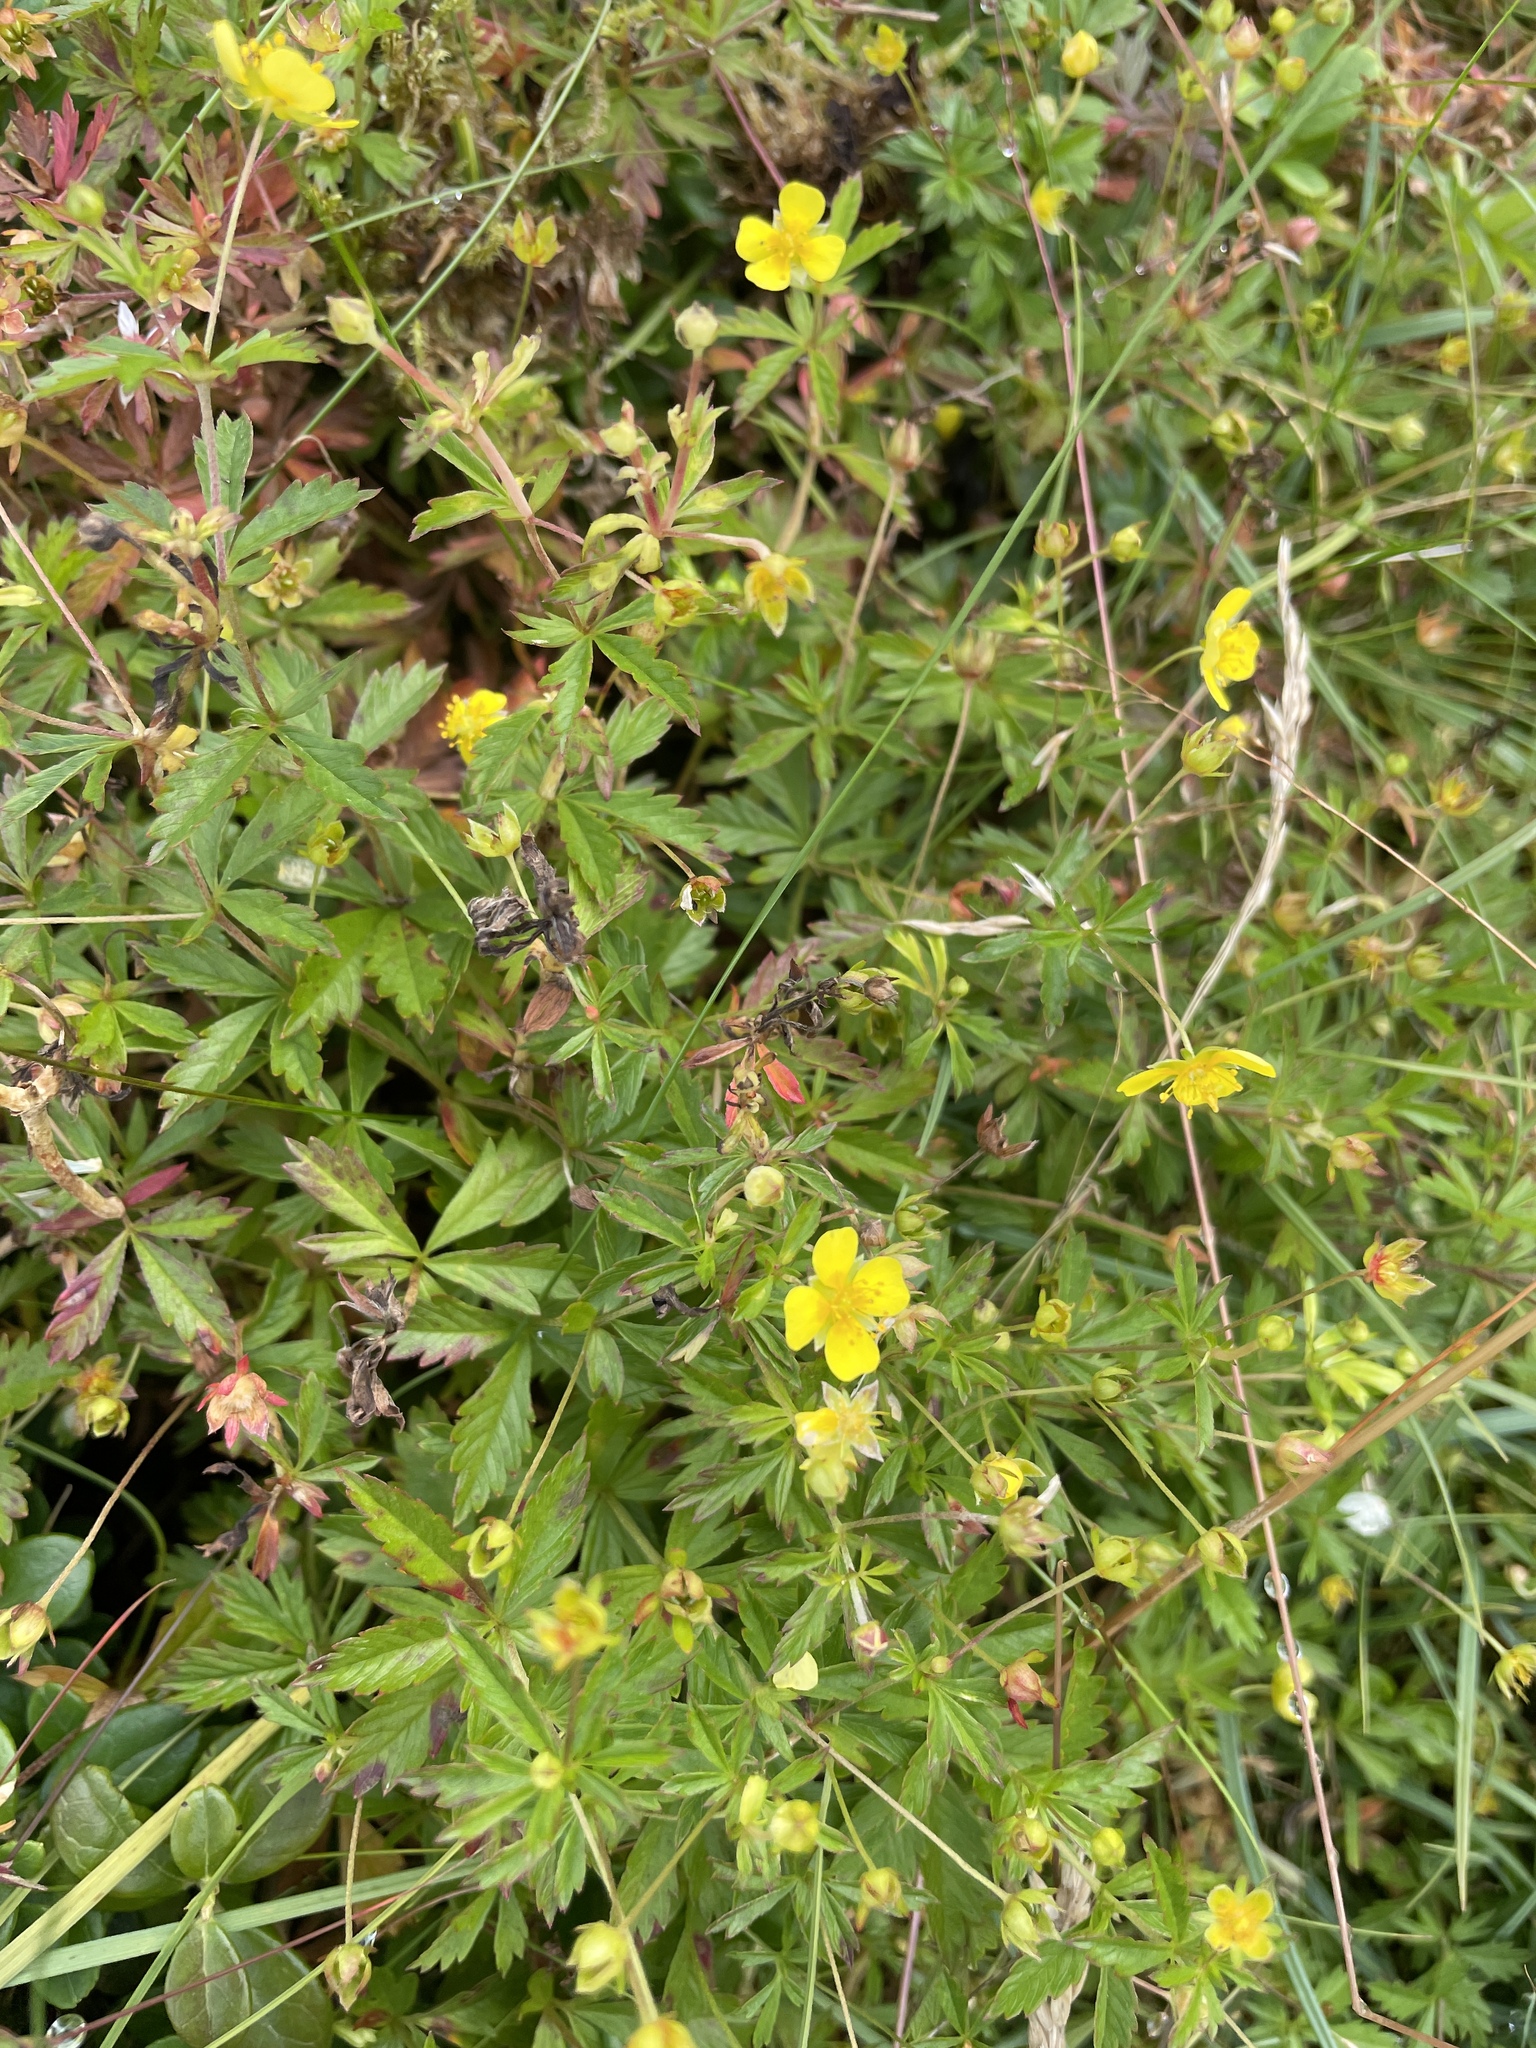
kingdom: Plantae
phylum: Tracheophyta
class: Magnoliopsida
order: Rosales
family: Rosaceae
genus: Potentilla
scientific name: Potentilla erecta
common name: Tormentil
